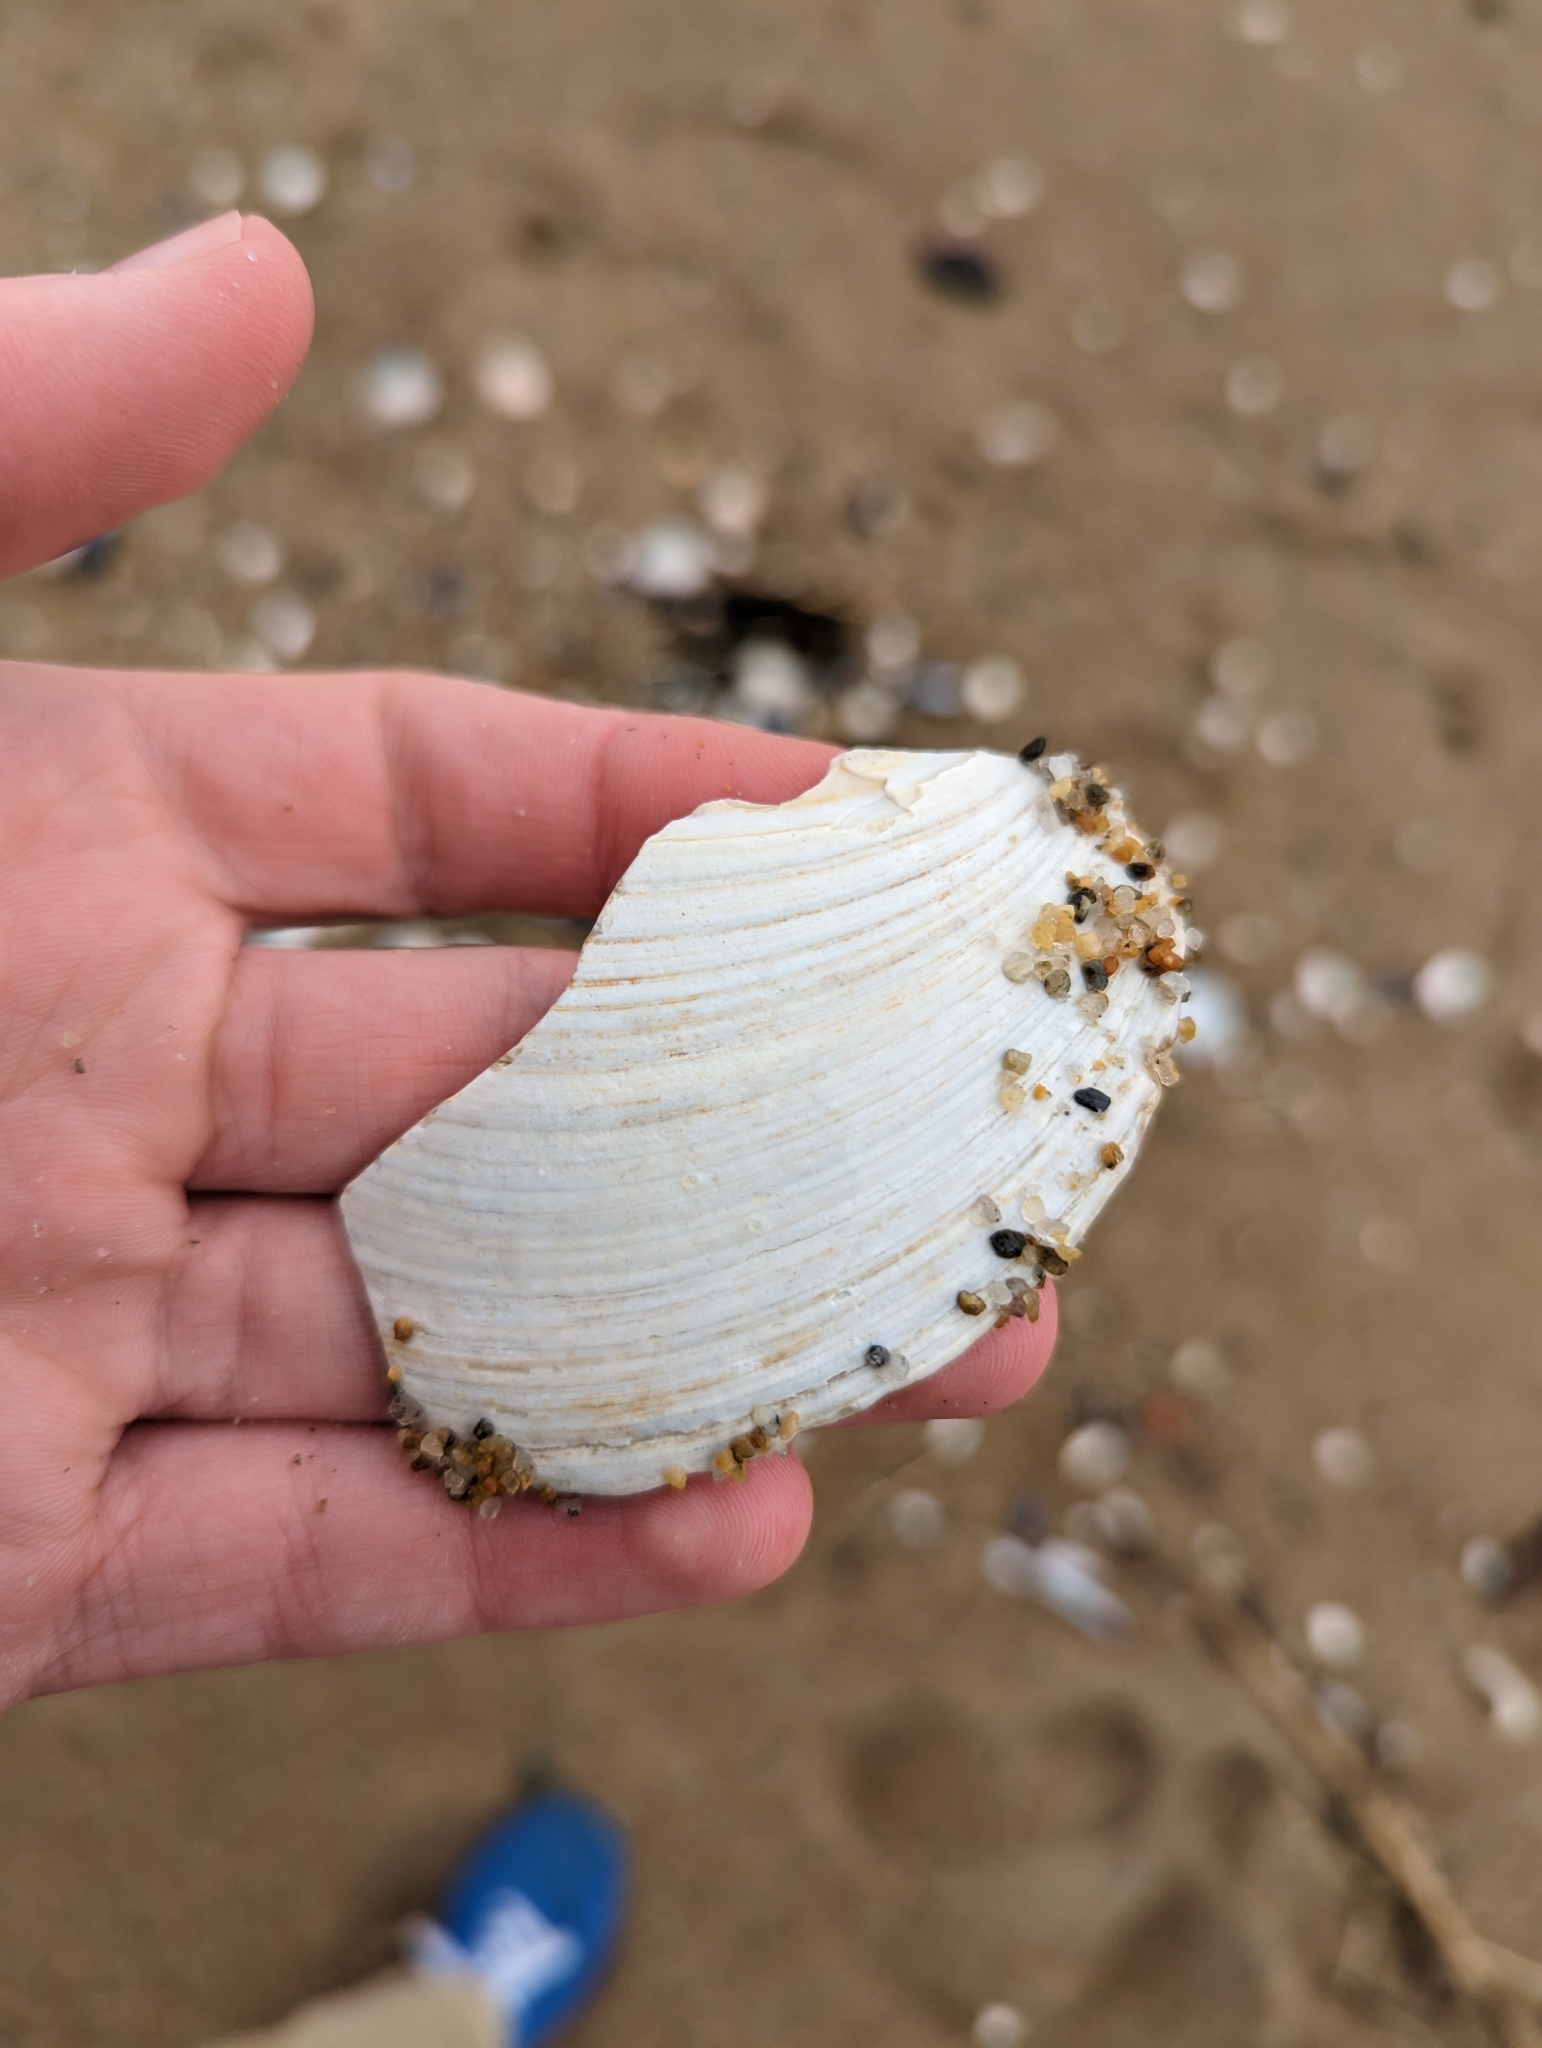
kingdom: Animalia
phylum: Mollusca
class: Bivalvia
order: Venerida
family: Mactridae
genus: Spisula
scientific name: Spisula solidissima
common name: Atlantic surf clam
